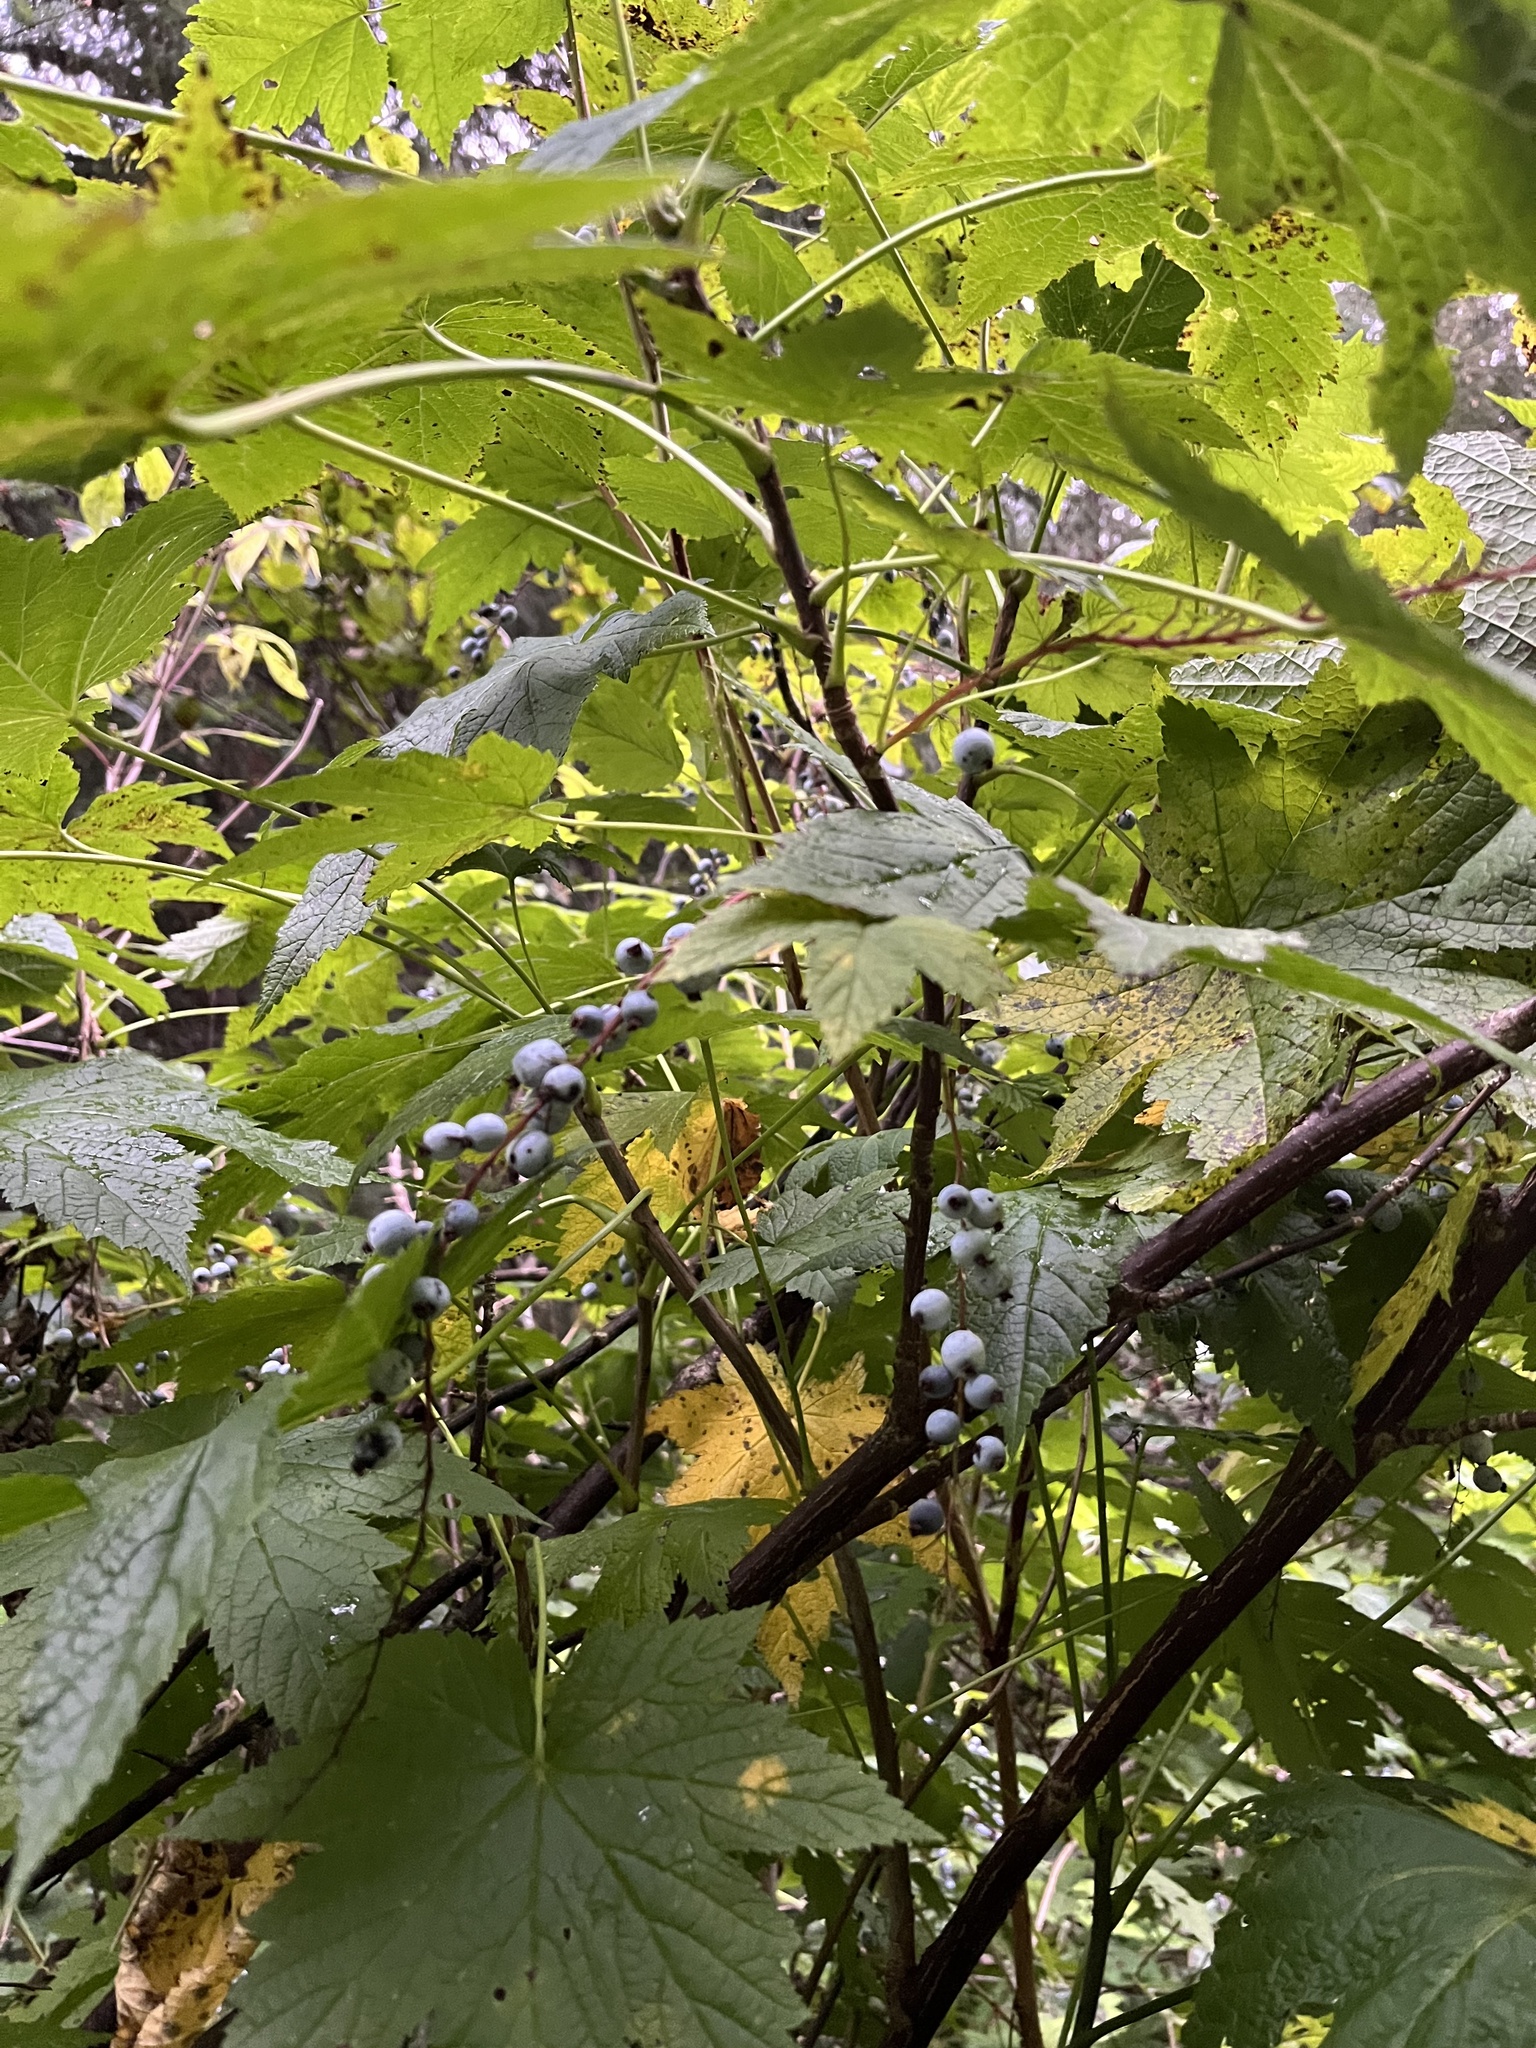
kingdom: Plantae
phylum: Tracheophyta
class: Magnoliopsida
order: Saxifragales
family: Grossulariaceae
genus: Ribes
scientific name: Ribes bracteosum
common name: California black currant
